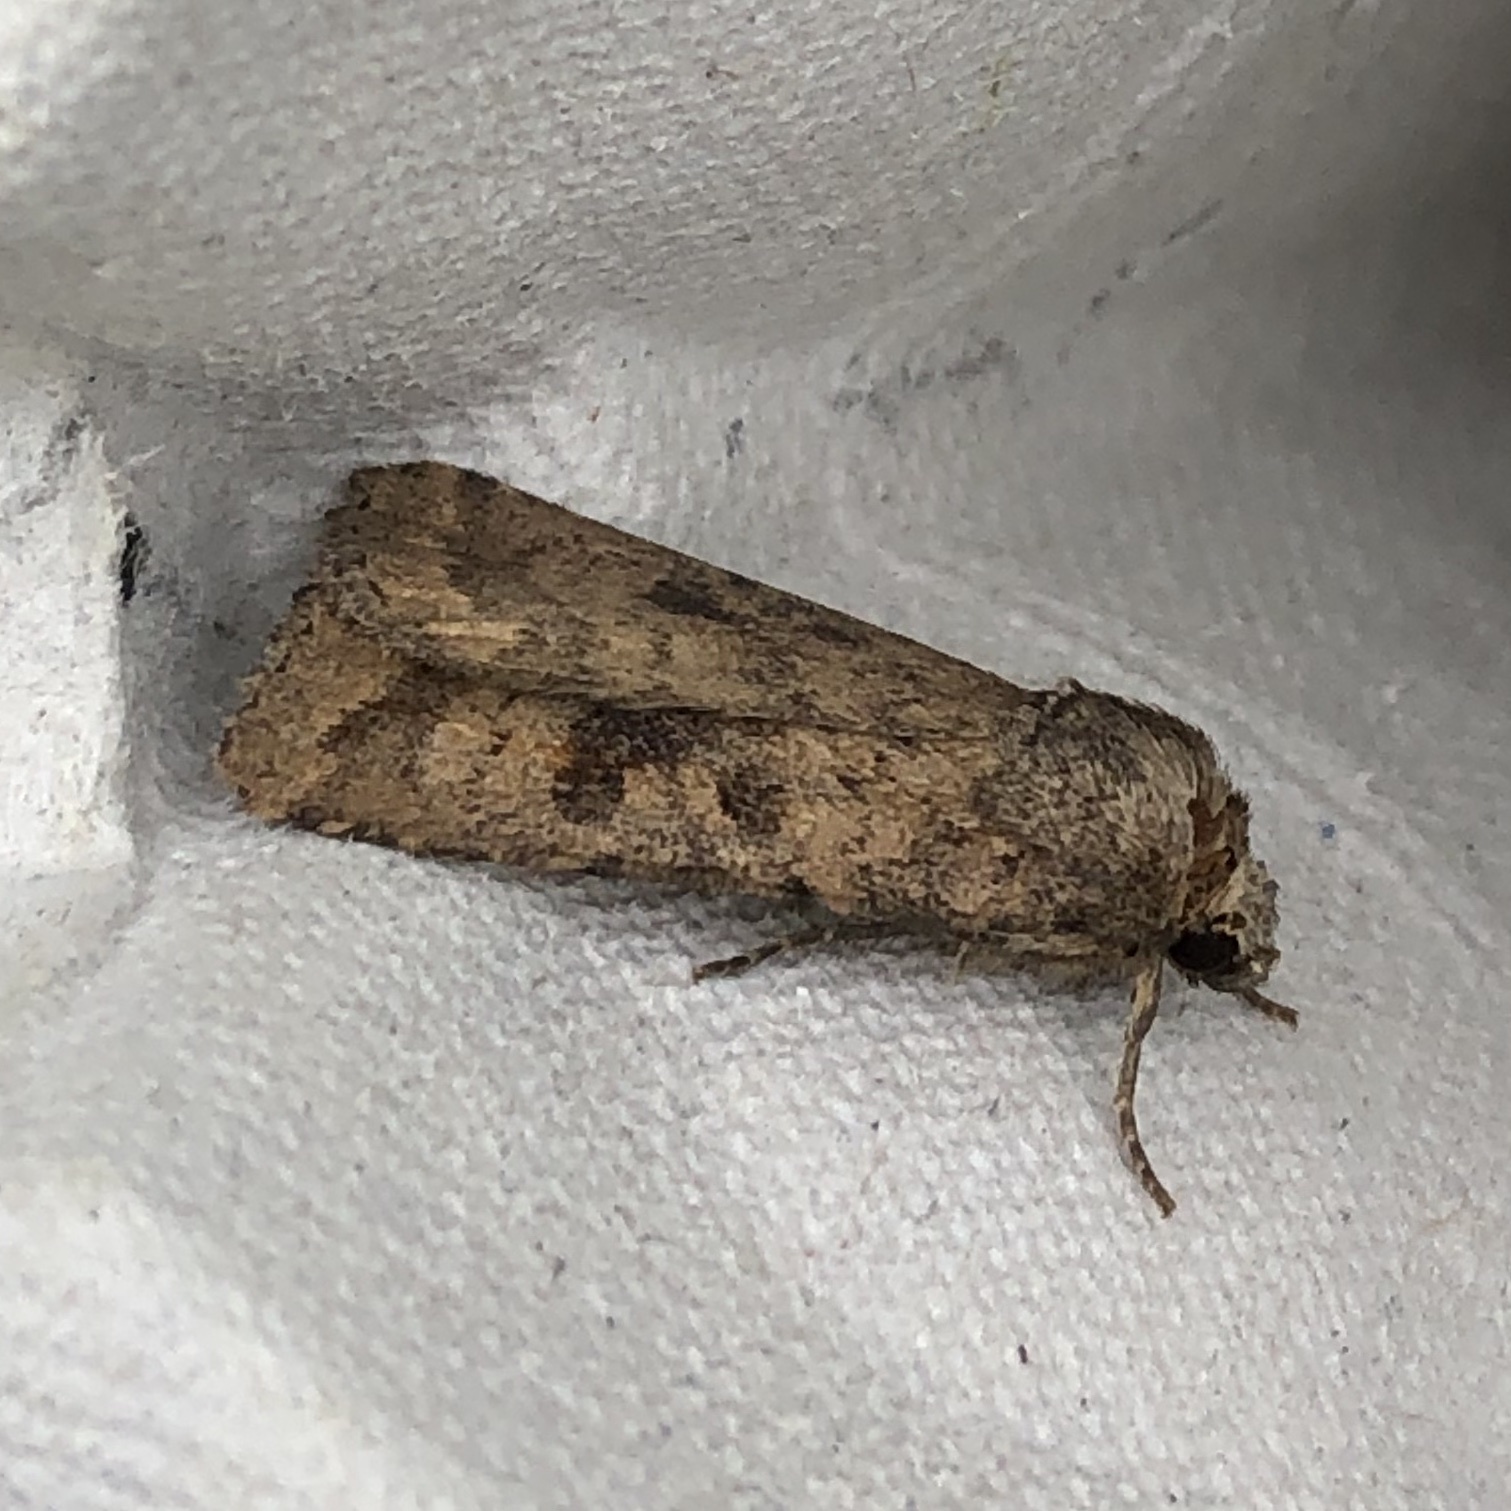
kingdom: Animalia
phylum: Arthropoda
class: Insecta
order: Lepidoptera
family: Noctuidae
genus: Caradrina
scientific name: Caradrina morpheus
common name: Mottled rustic
